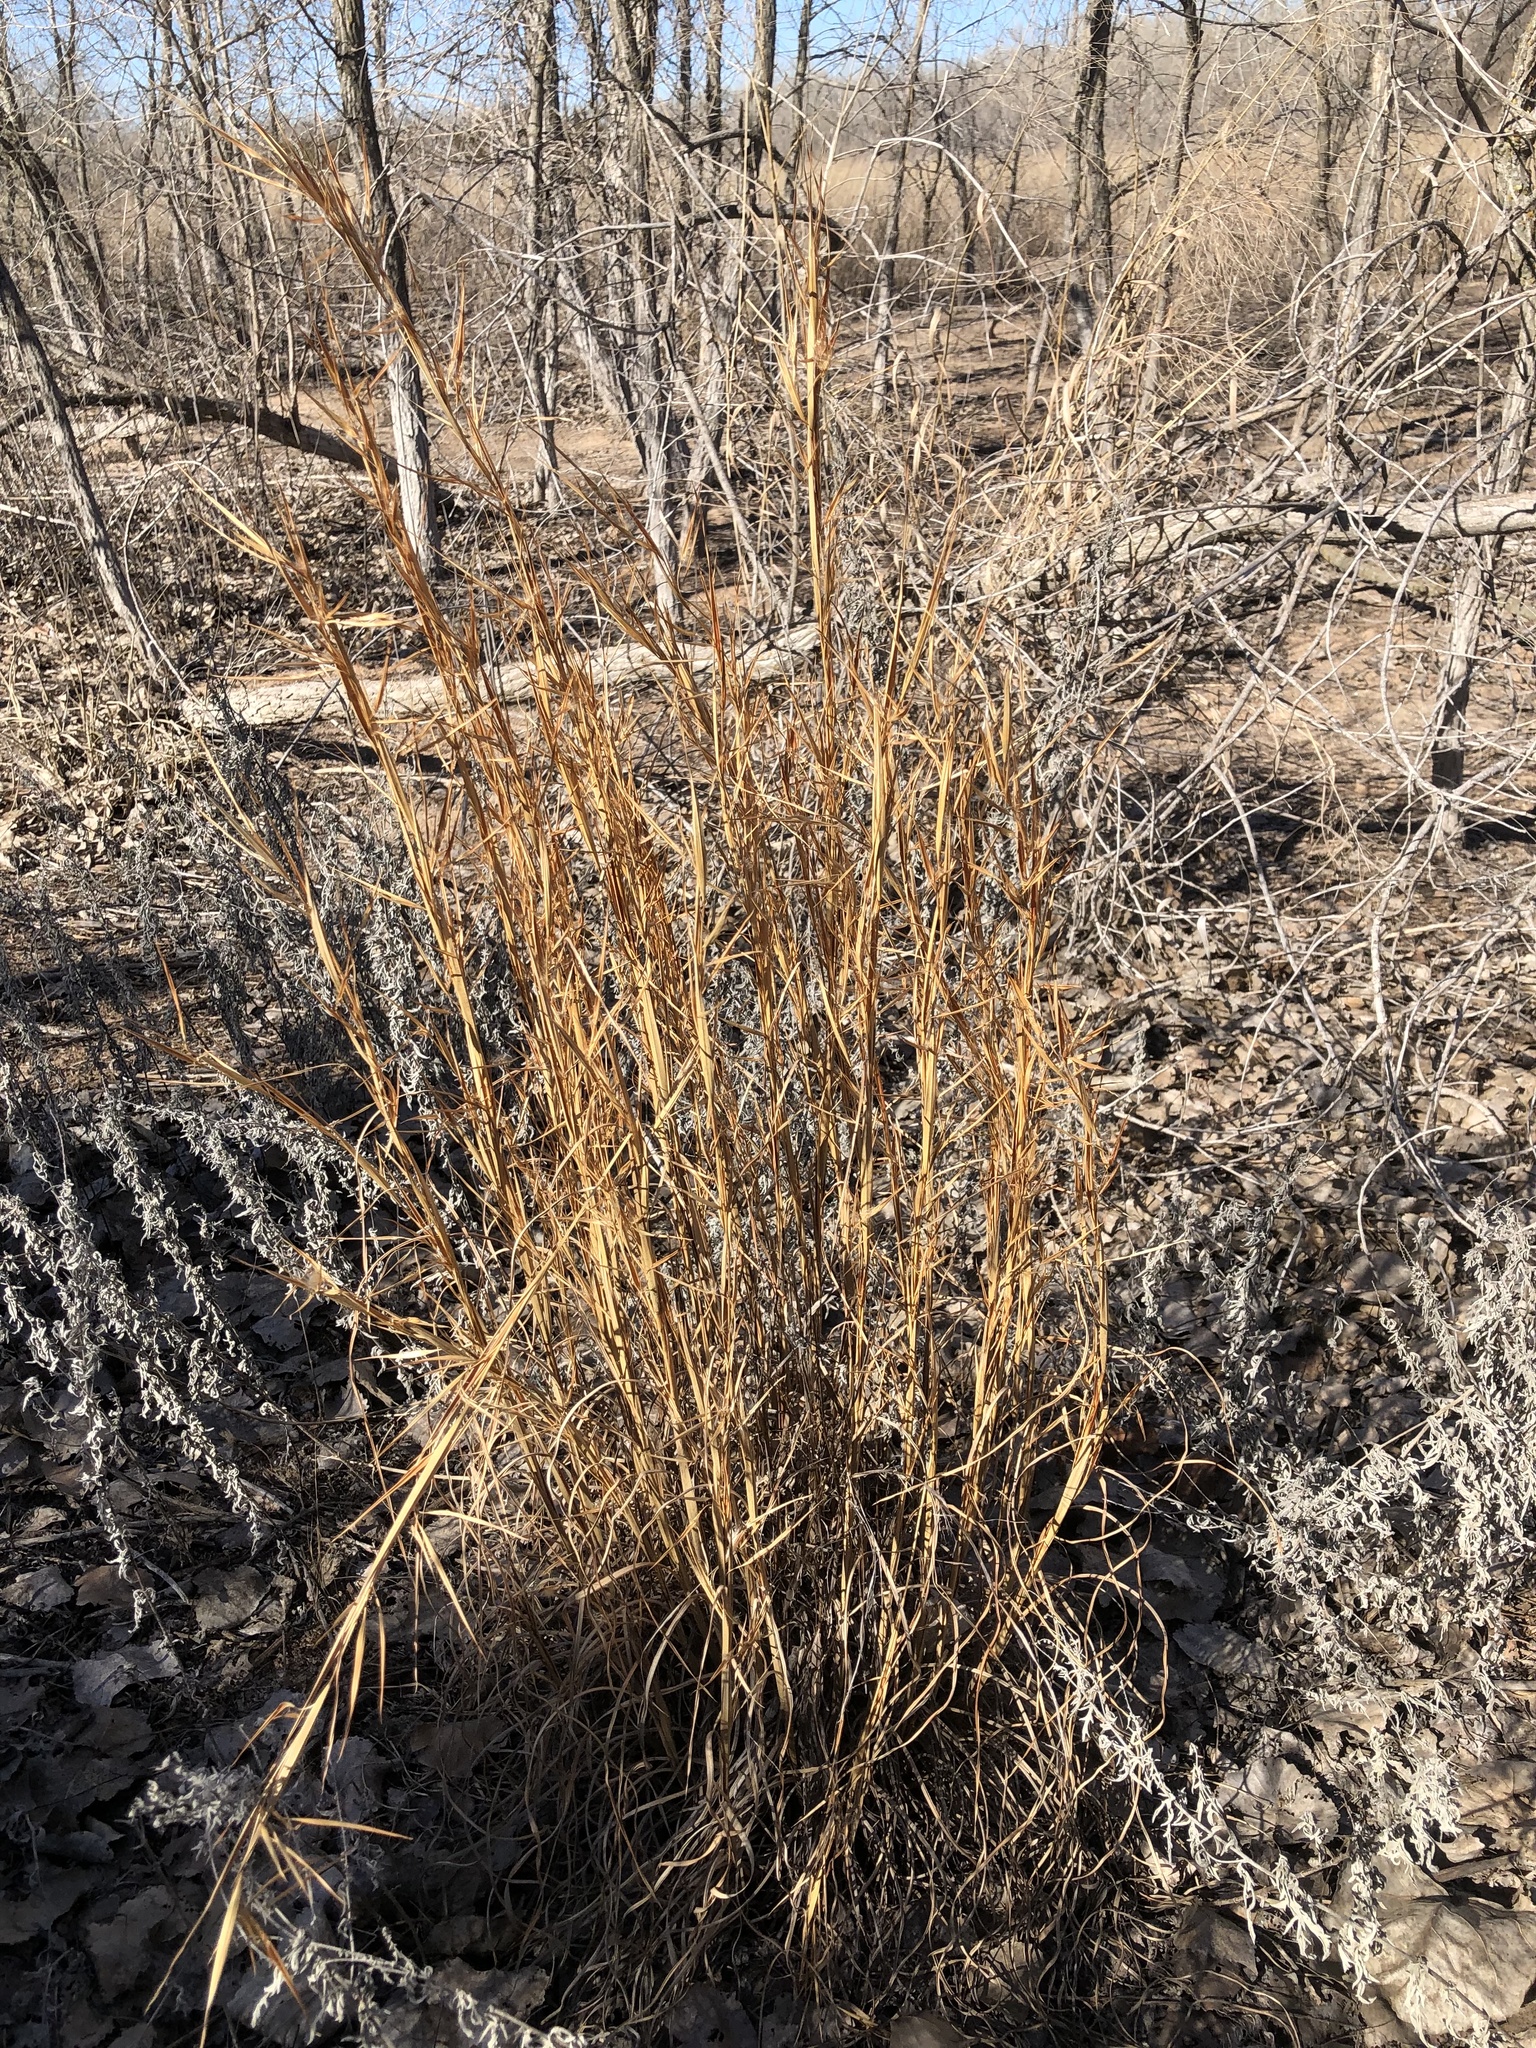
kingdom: Plantae
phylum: Tracheophyta
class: Liliopsida
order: Poales
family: Poaceae
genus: Andropogon
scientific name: Andropogon virginicus
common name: Broomsedge bluestem
